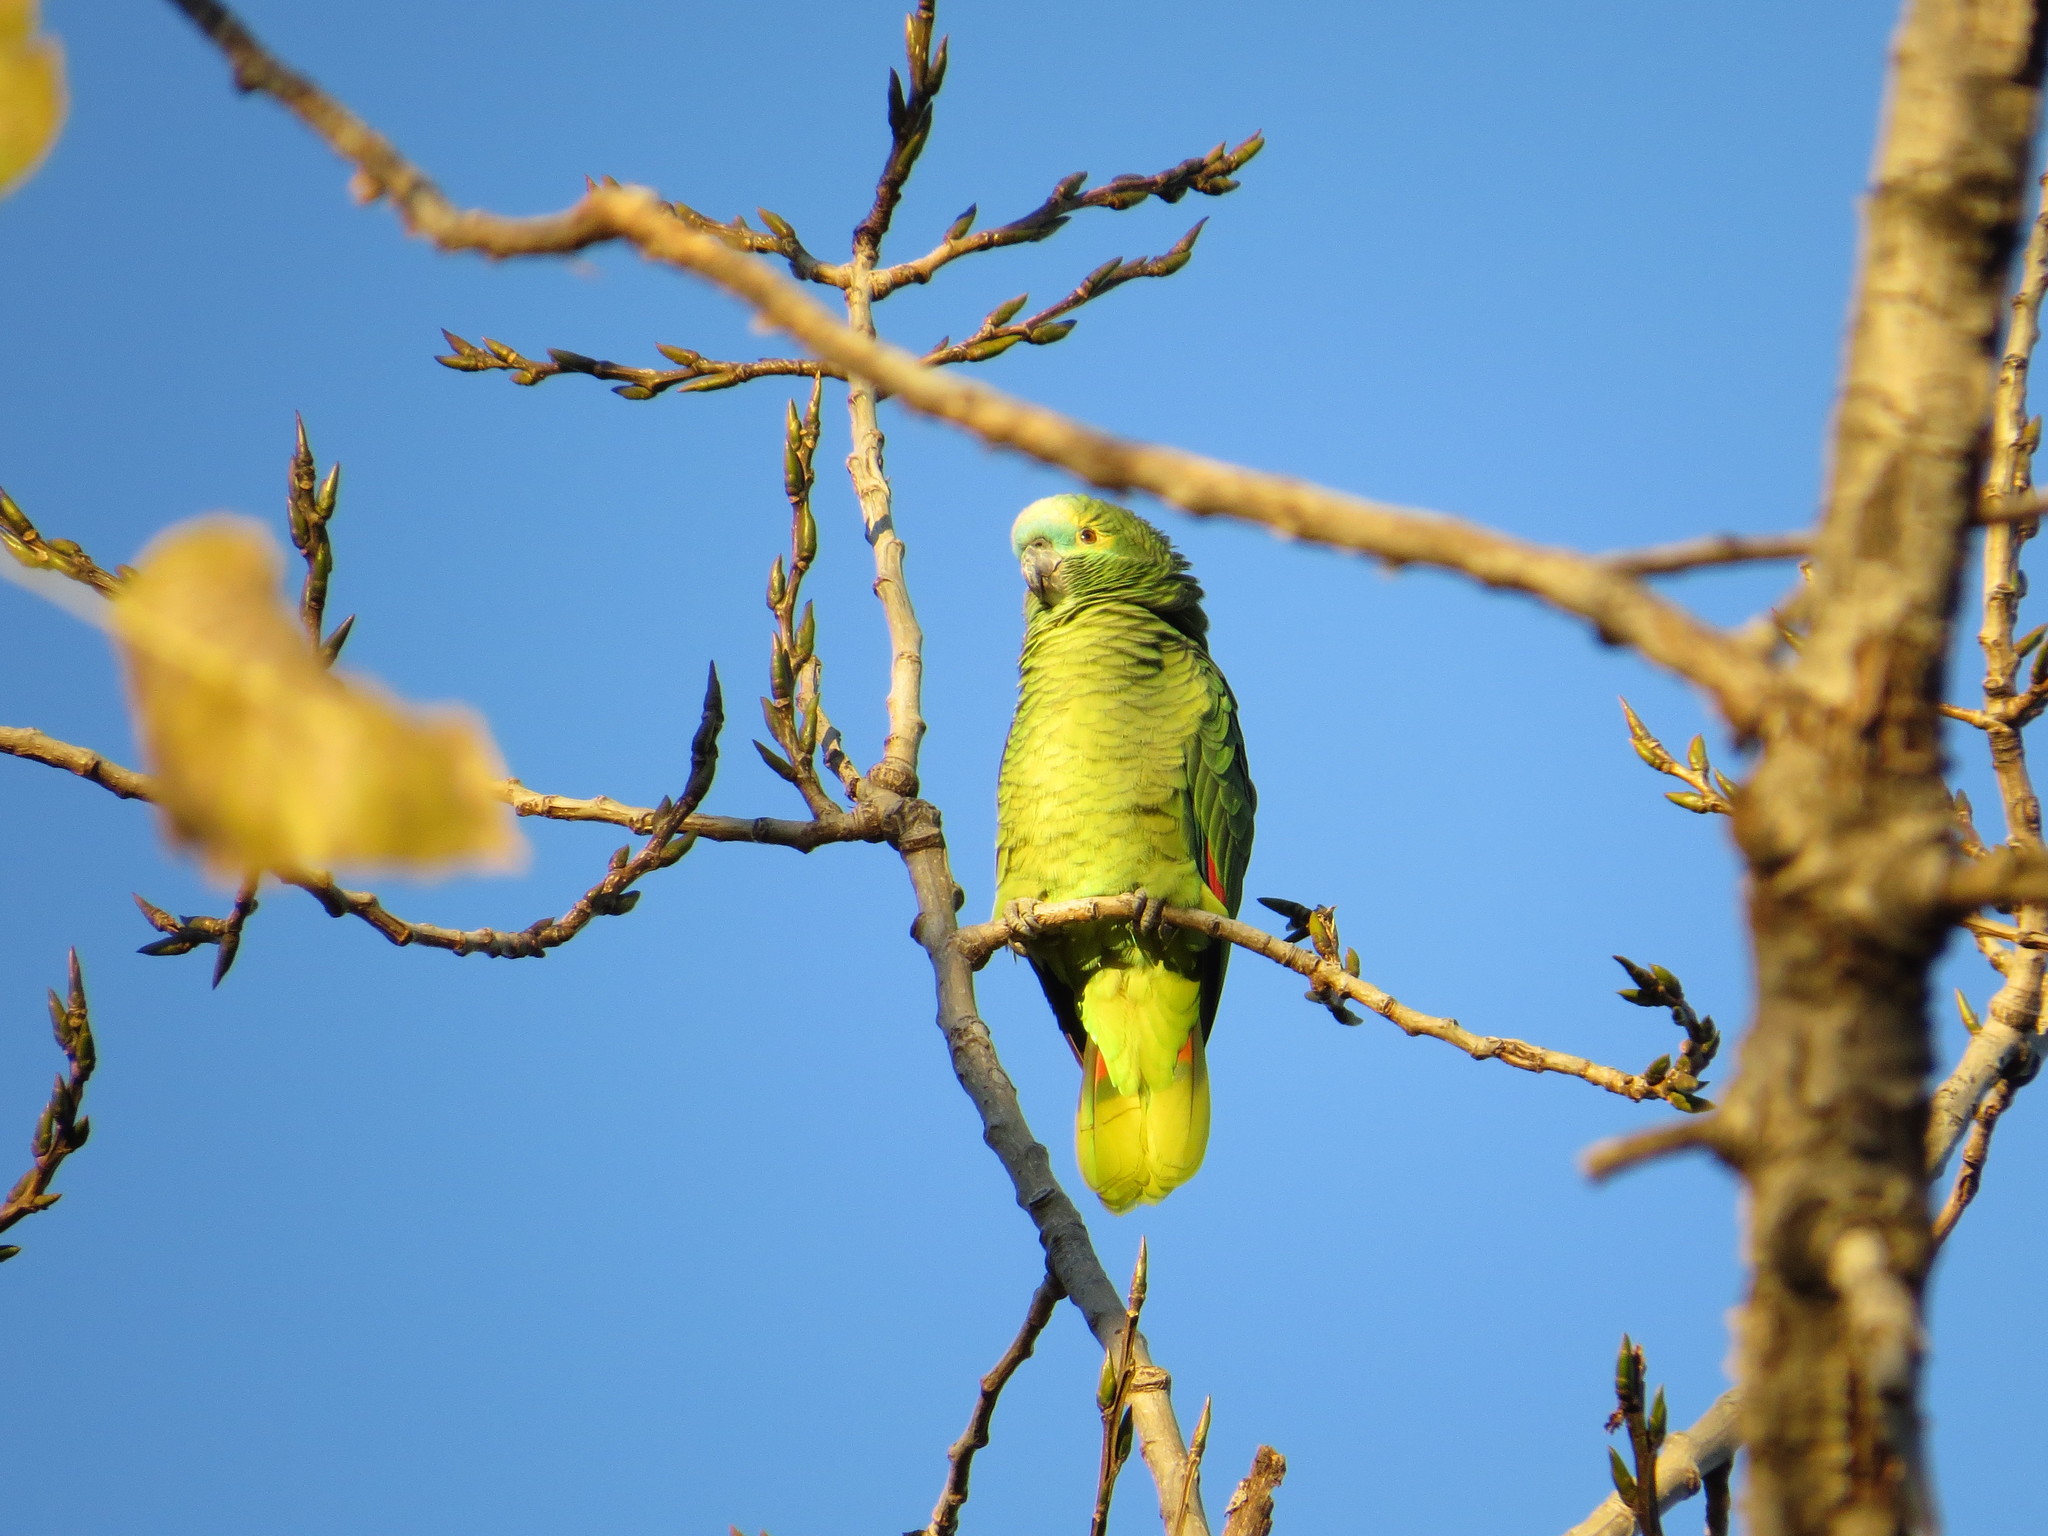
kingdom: Animalia
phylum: Chordata
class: Aves
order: Psittaciformes
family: Psittacidae
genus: Amazona
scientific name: Amazona aestiva
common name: Turquoise-fronted amazon
